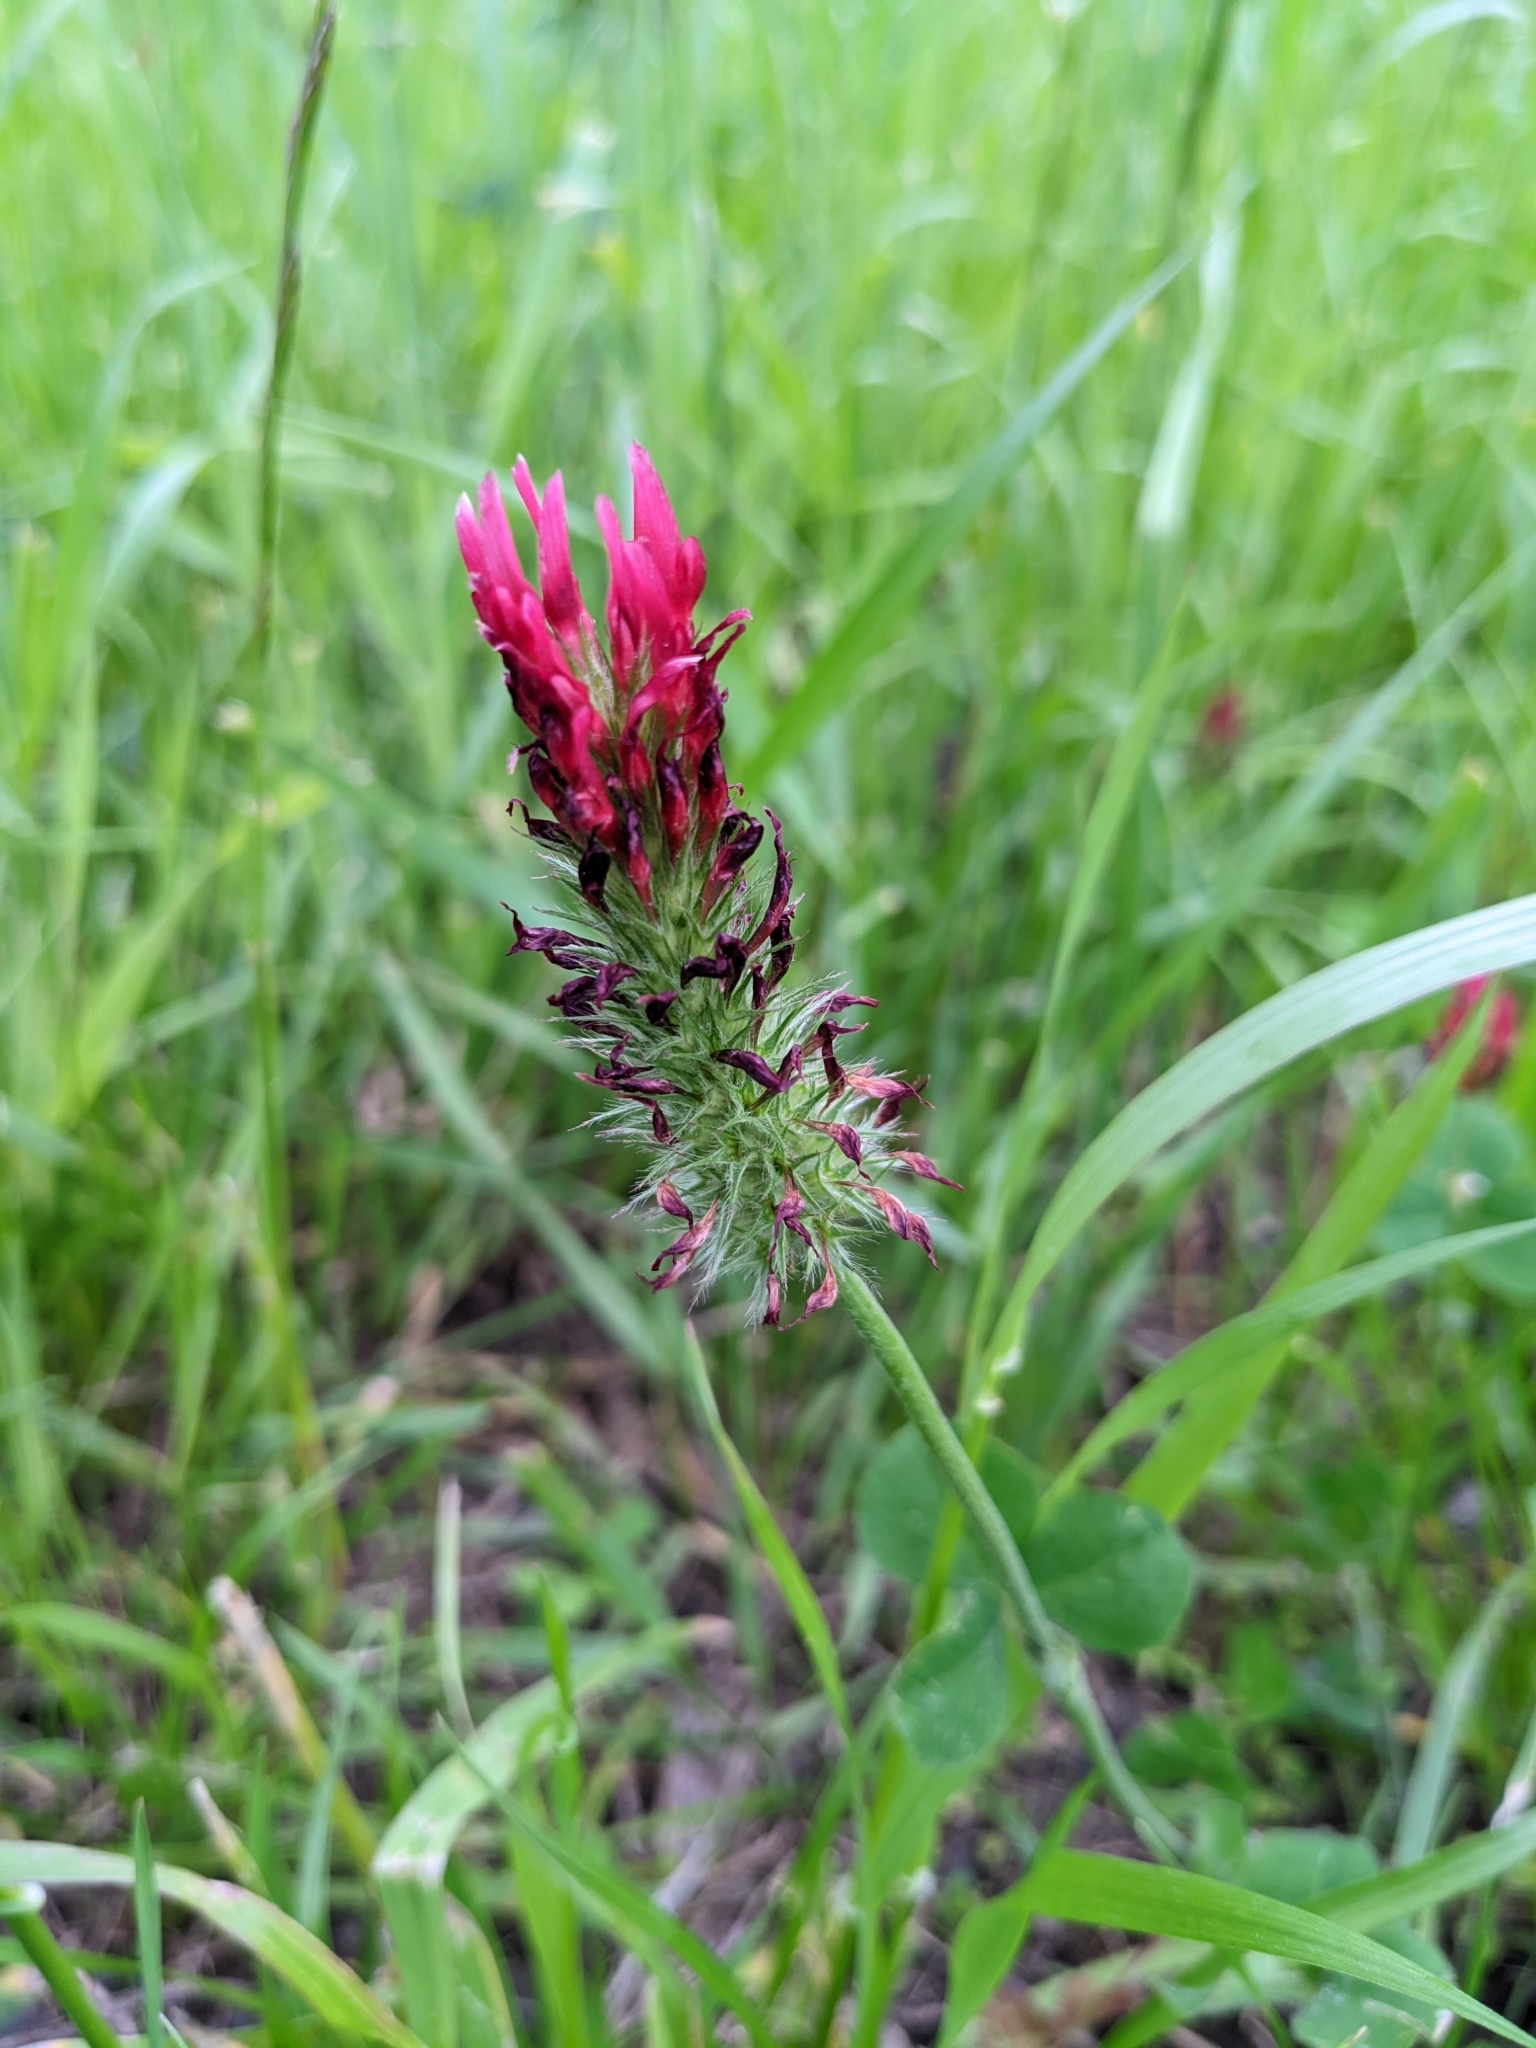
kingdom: Plantae
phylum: Tracheophyta
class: Magnoliopsida
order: Fabales
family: Fabaceae
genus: Trifolium
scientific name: Trifolium incarnatum
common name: Crimson clover
